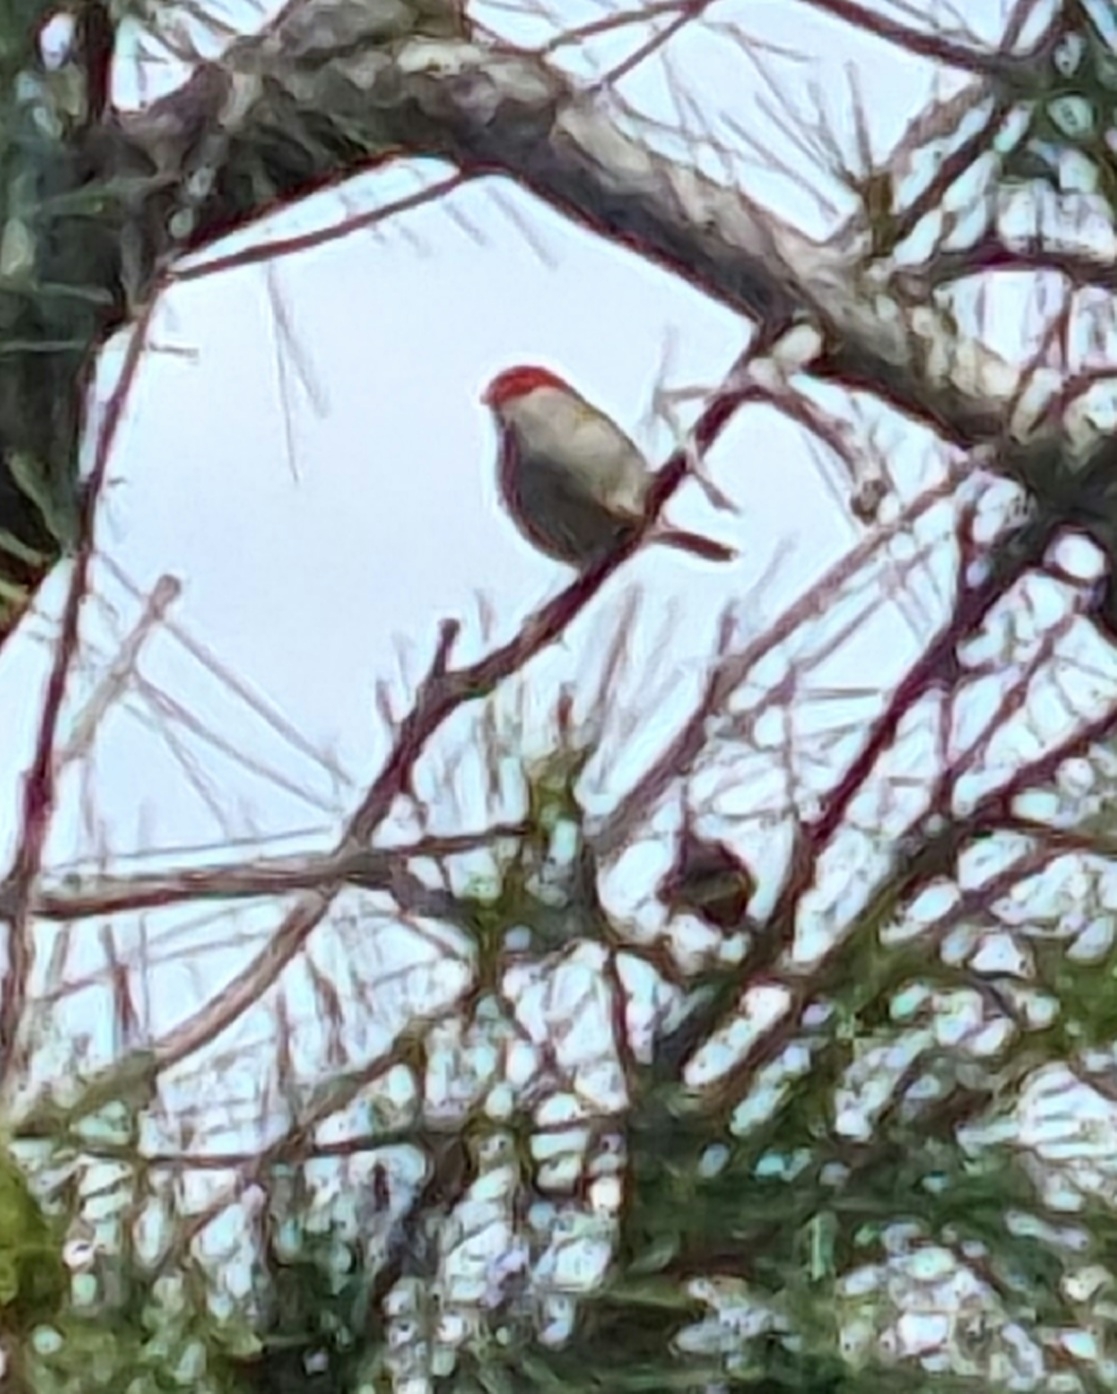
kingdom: Animalia
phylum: Chordata
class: Aves
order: Passeriformes
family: Estrildidae
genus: Neochmia
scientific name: Neochmia temporalis
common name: Red-browed finch
